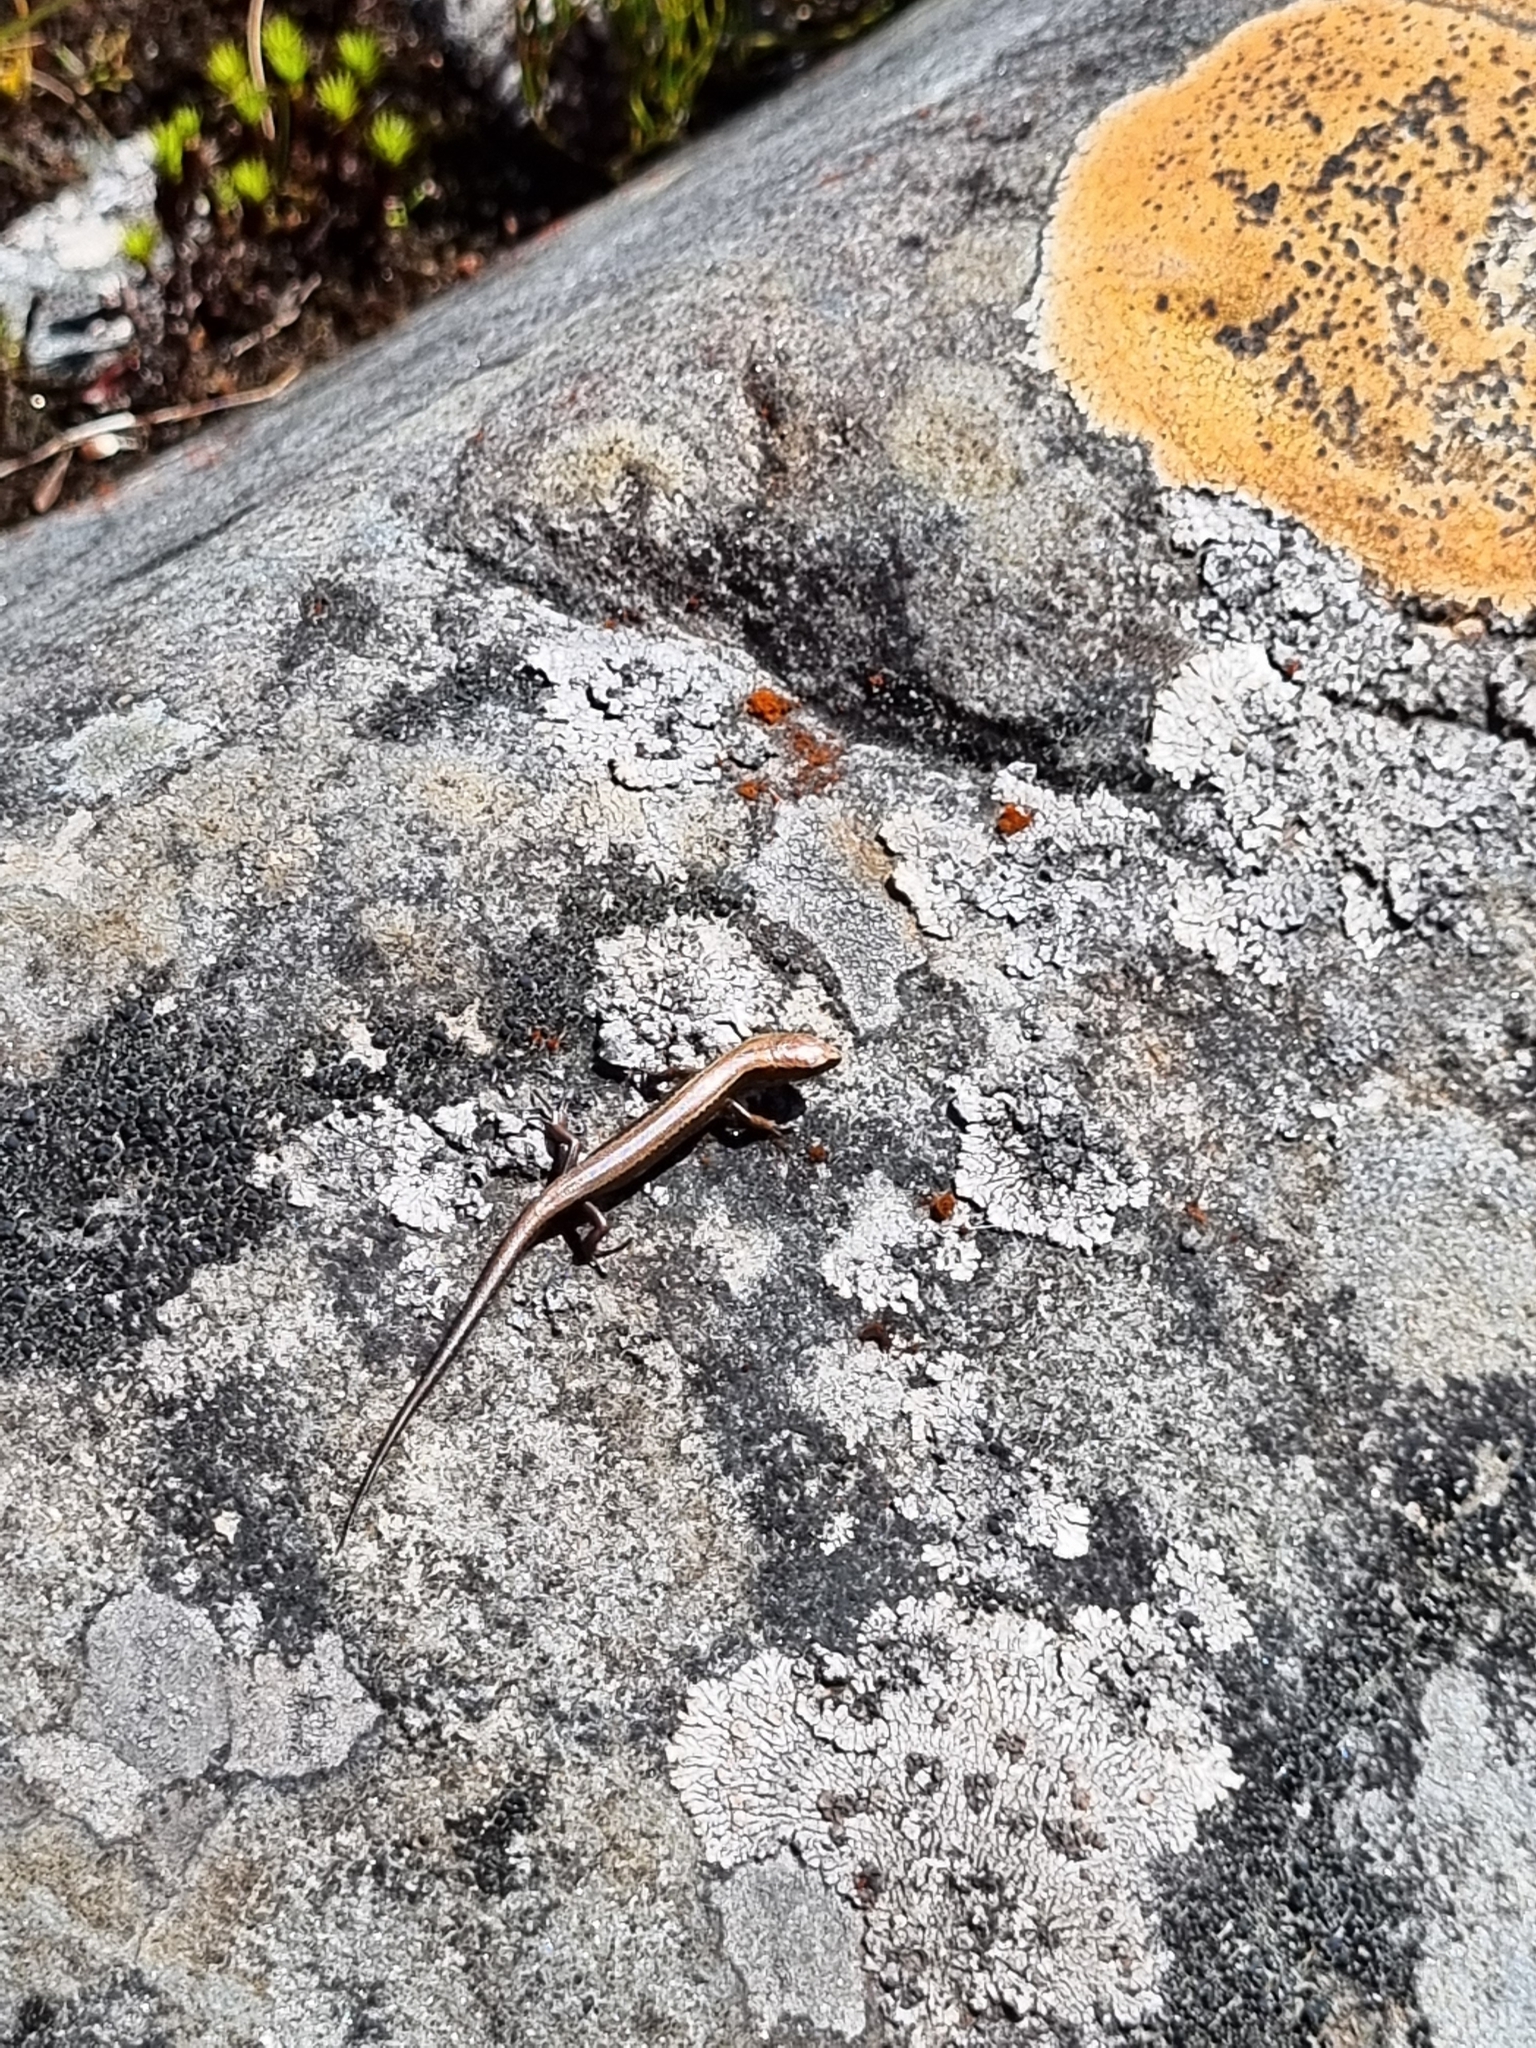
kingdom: Animalia
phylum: Chordata
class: Squamata
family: Scincidae
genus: Oligosoma
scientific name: Oligosoma newmani
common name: Newman’s speckled skink
